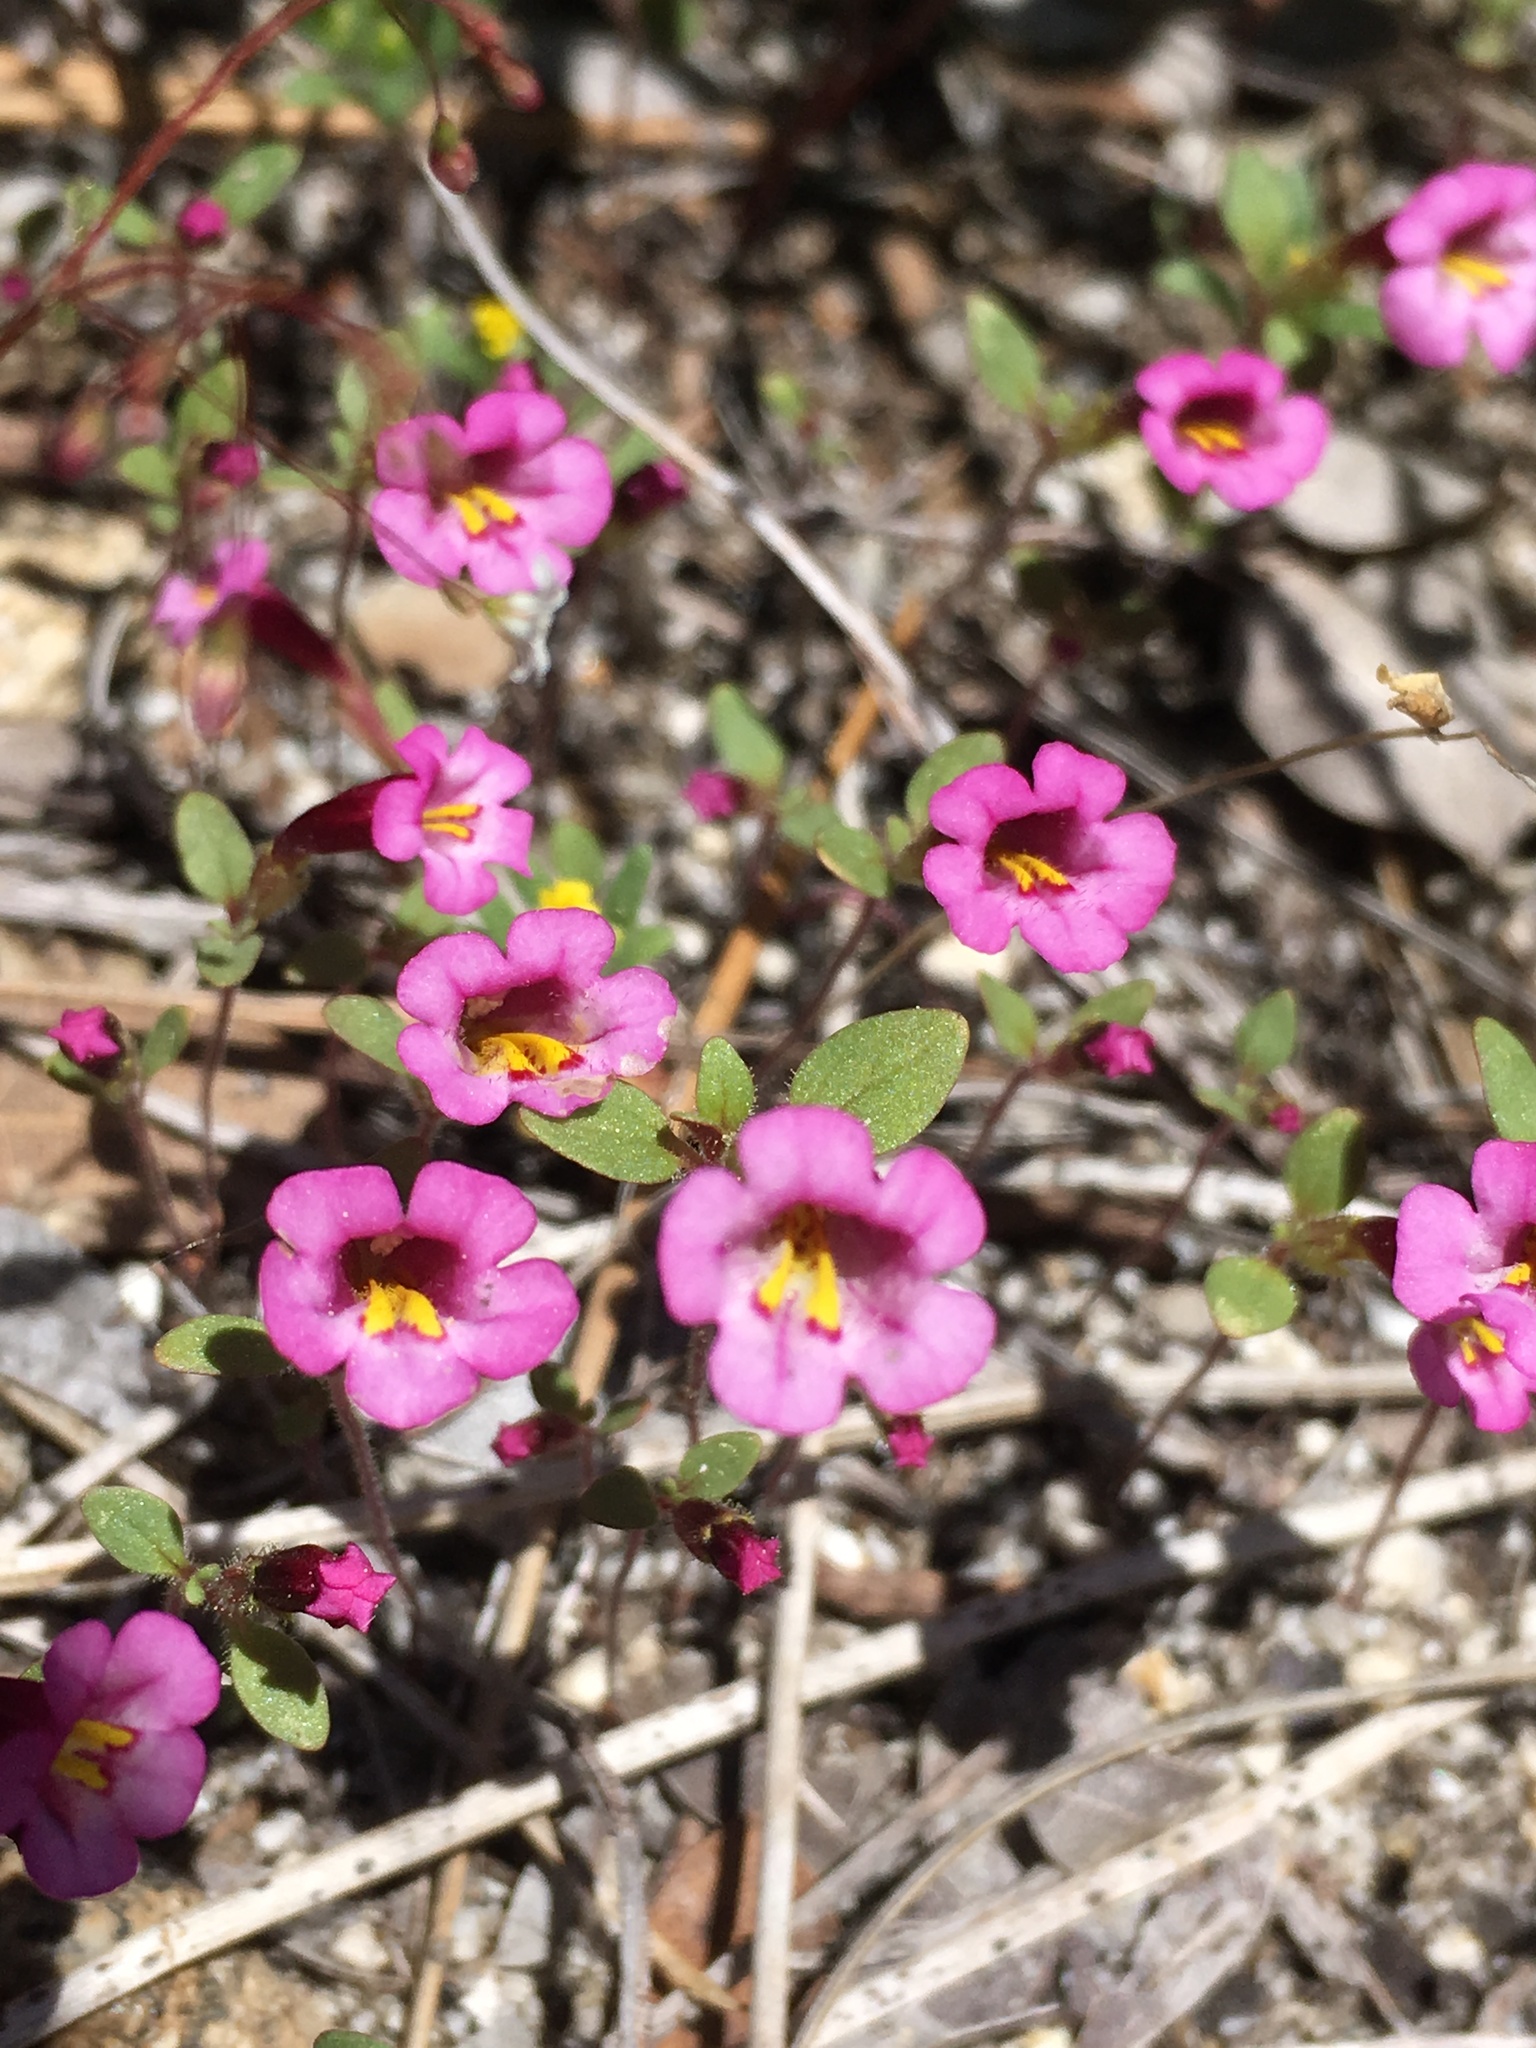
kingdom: Plantae
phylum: Tracheophyta
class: Magnoliopsida
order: Lamiales
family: Phrymaceae
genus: Diplacus
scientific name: Diplacus torreyi
